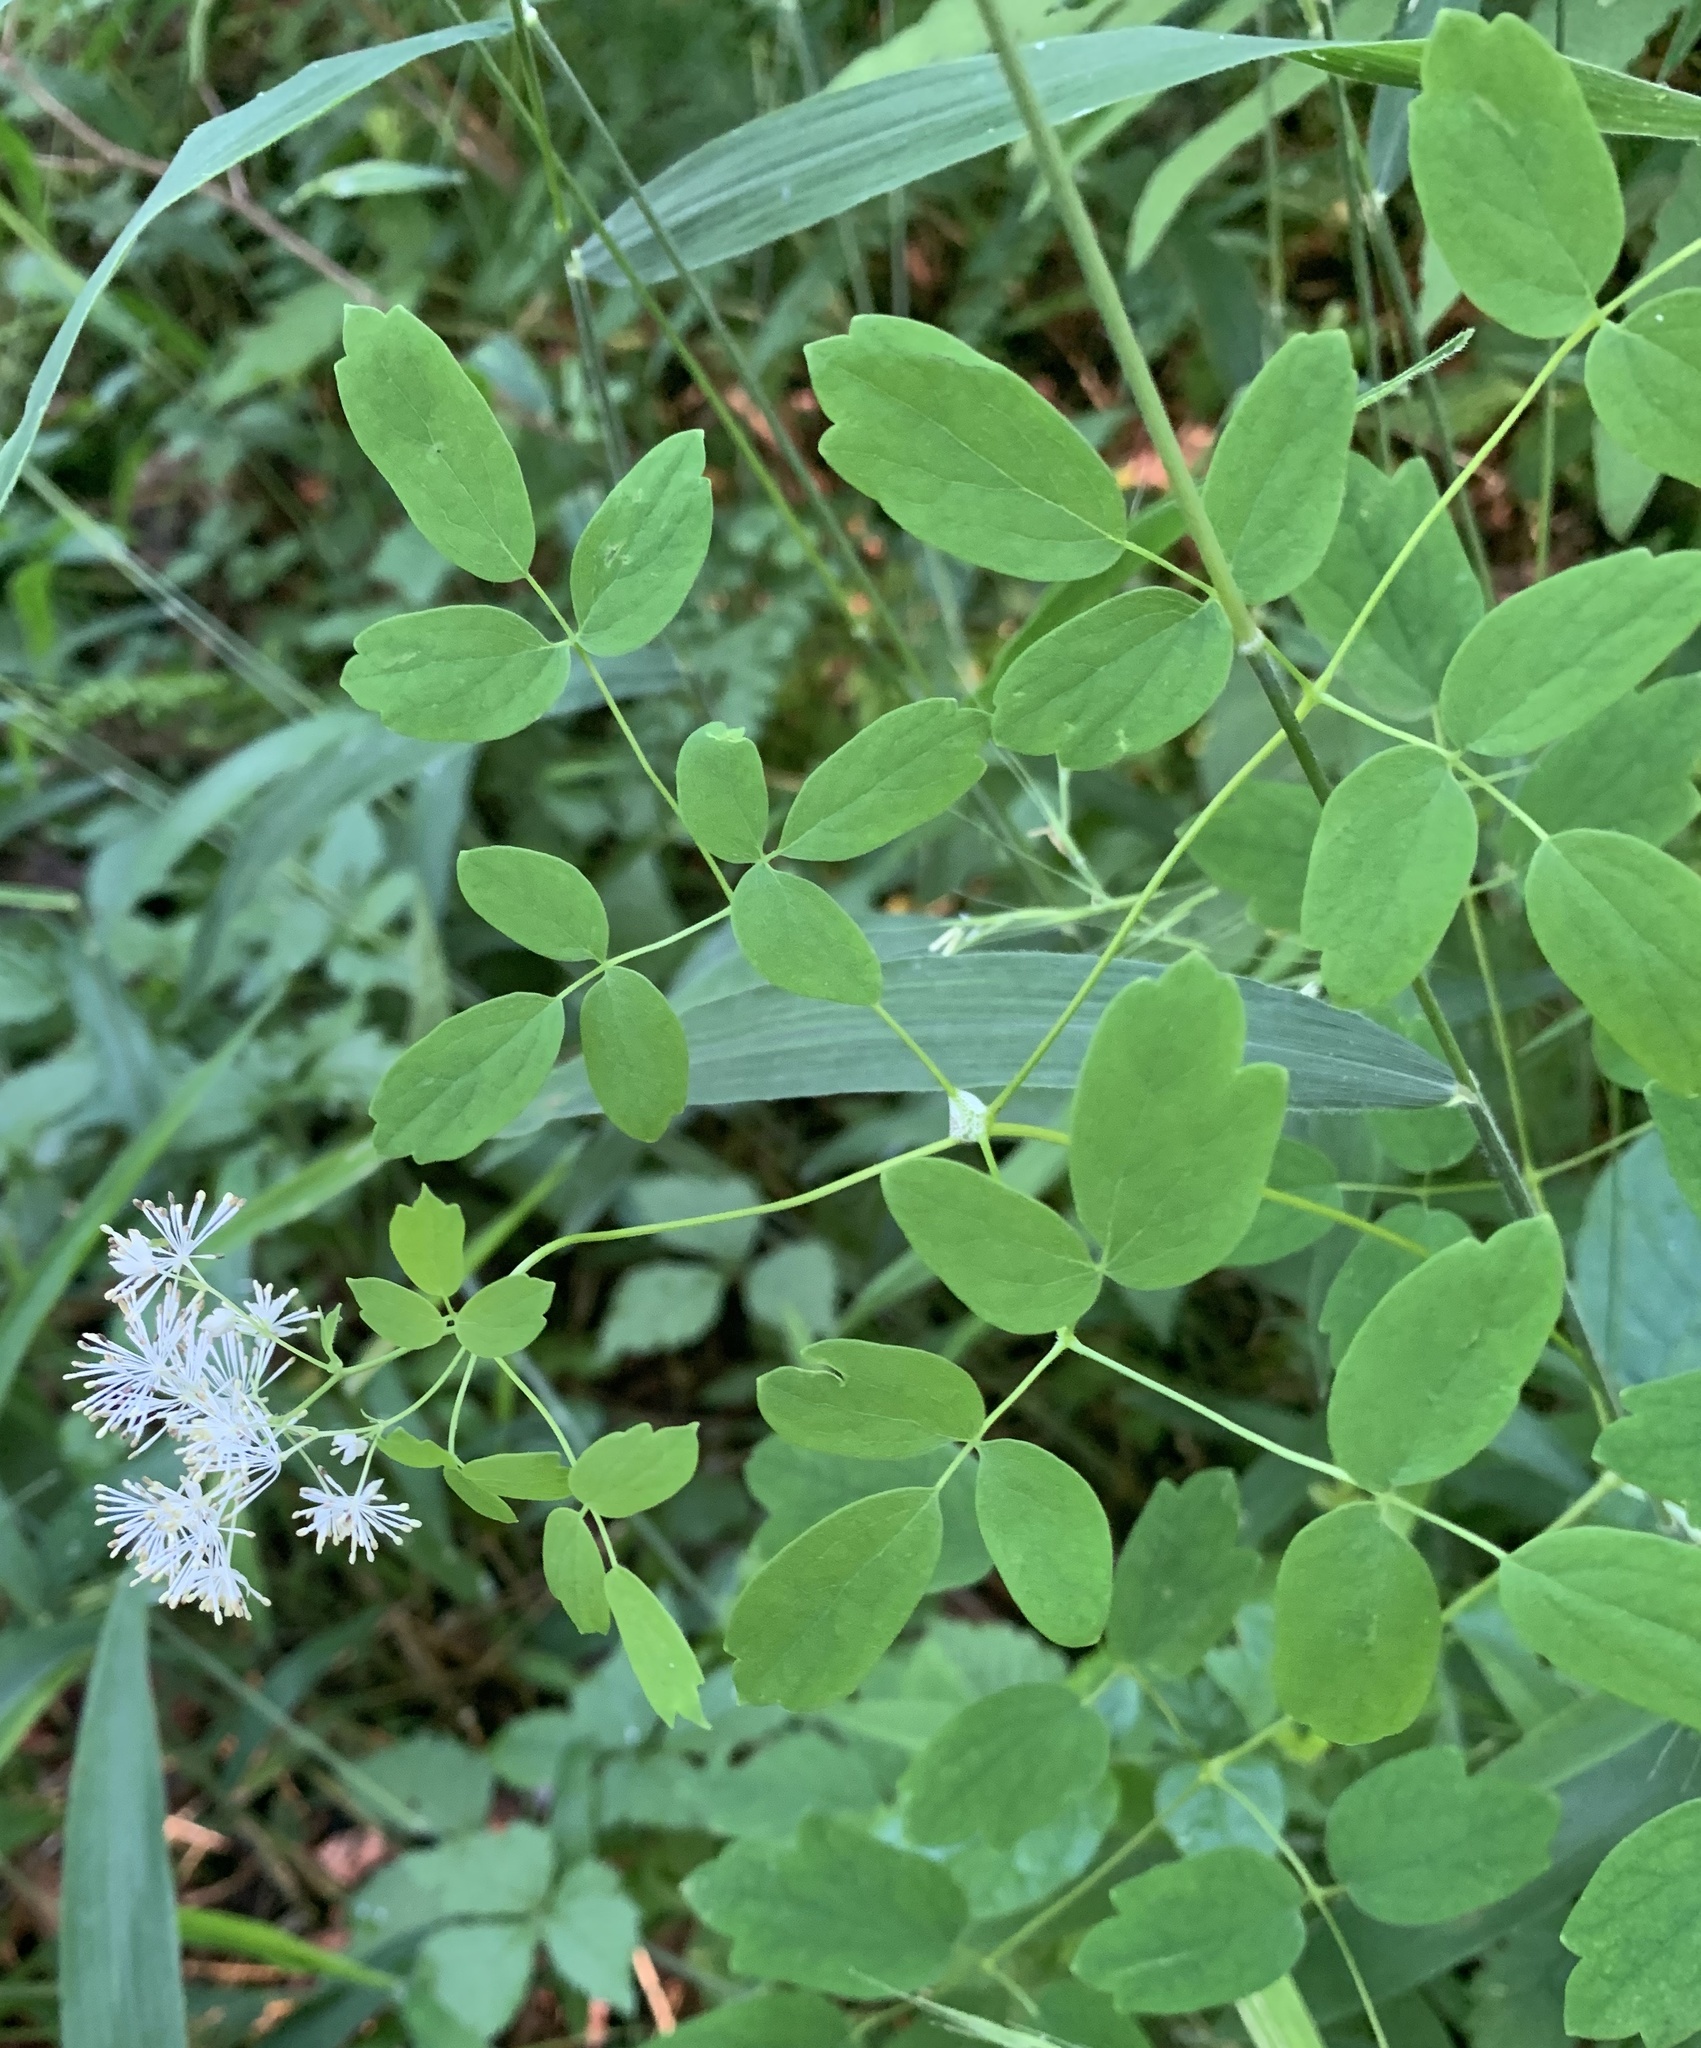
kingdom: Plantae
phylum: Tracheophyta
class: Magnoliopsida
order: Ranunculales
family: Ranunculaceae
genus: Thalictrum
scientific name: Thalictrum pubescens
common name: King-of-the-meadow
